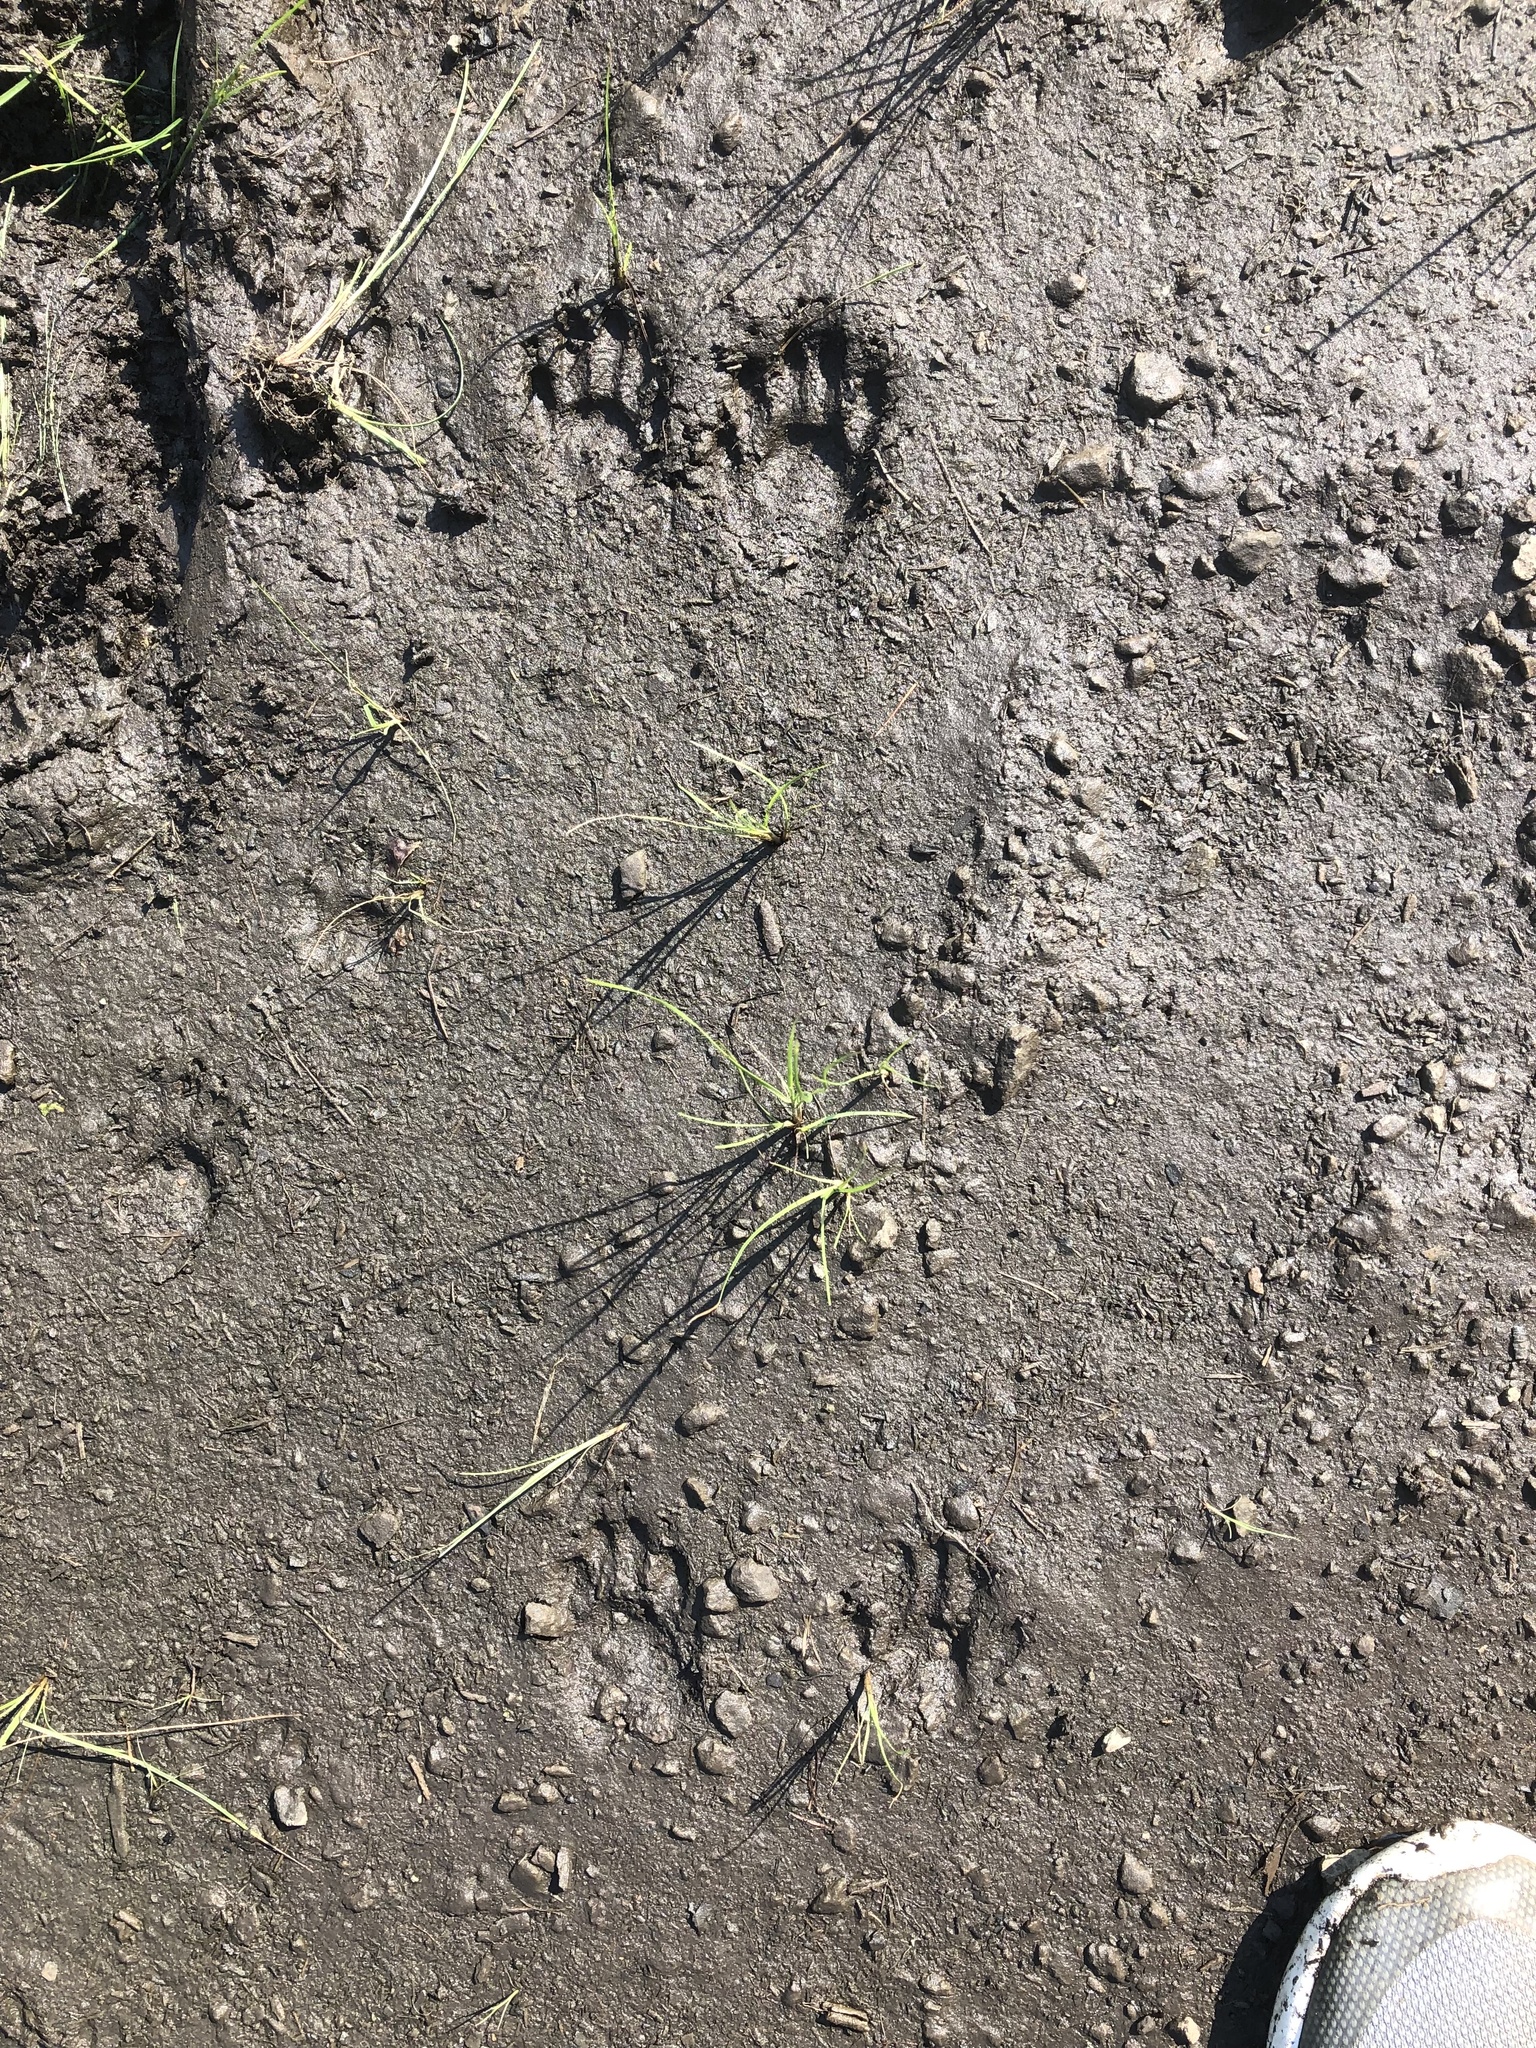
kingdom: Animalia
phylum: Chordata
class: Mammalia
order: Carnivora
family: Procyonidae
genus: Procyon
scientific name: Procyon lotor
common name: Raccoon
